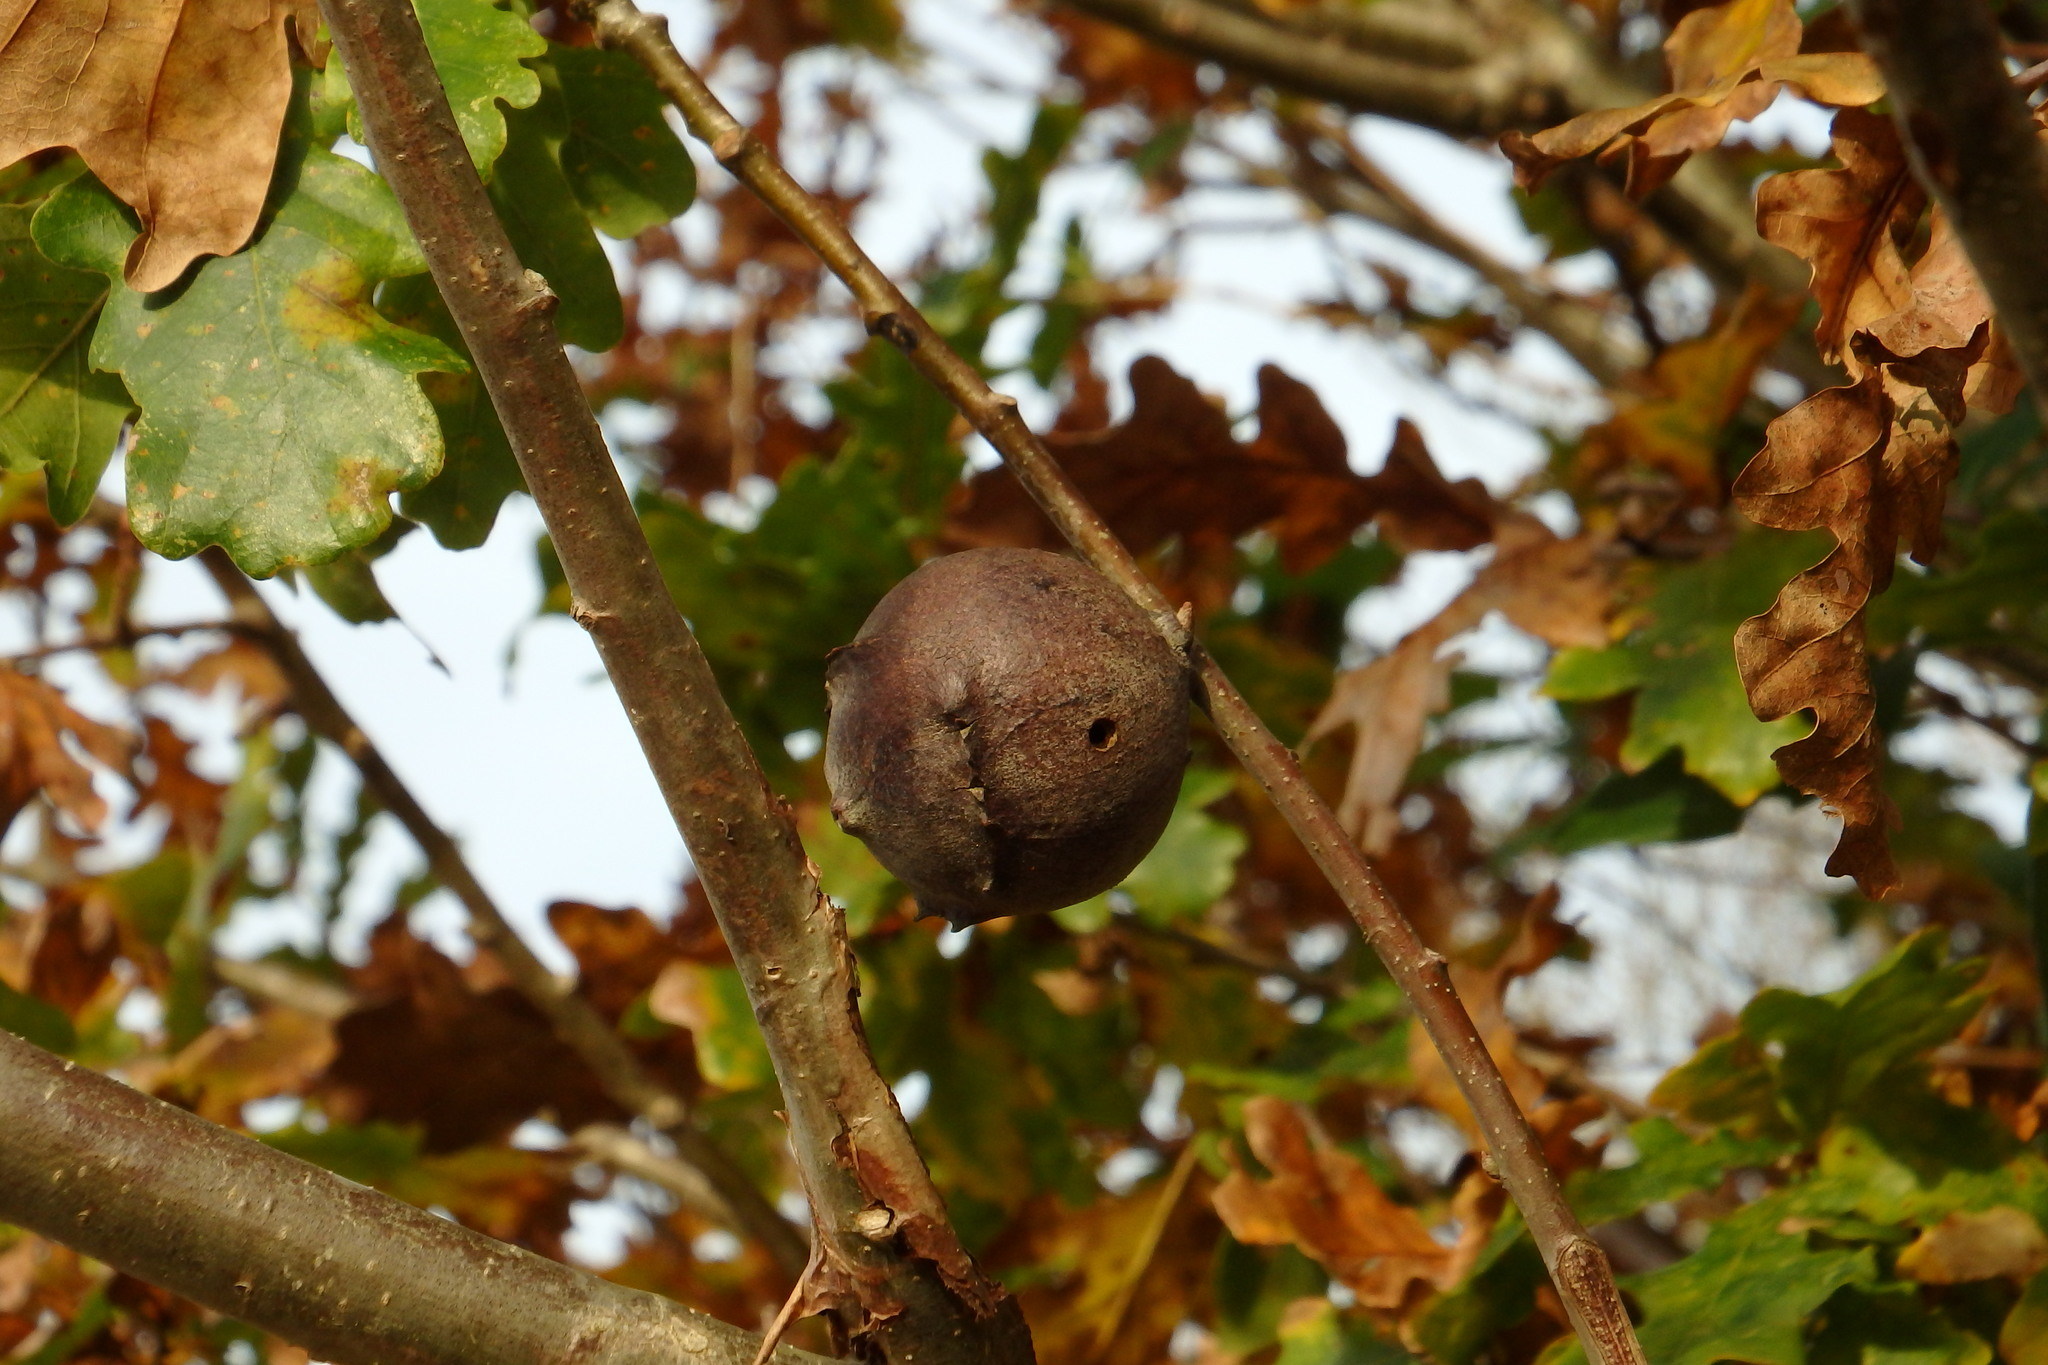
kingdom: Animalia
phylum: Arthropoda
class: Insecta
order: Hymenoptera
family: Cynipidae
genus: Andricus
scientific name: Andricus quercustozae
